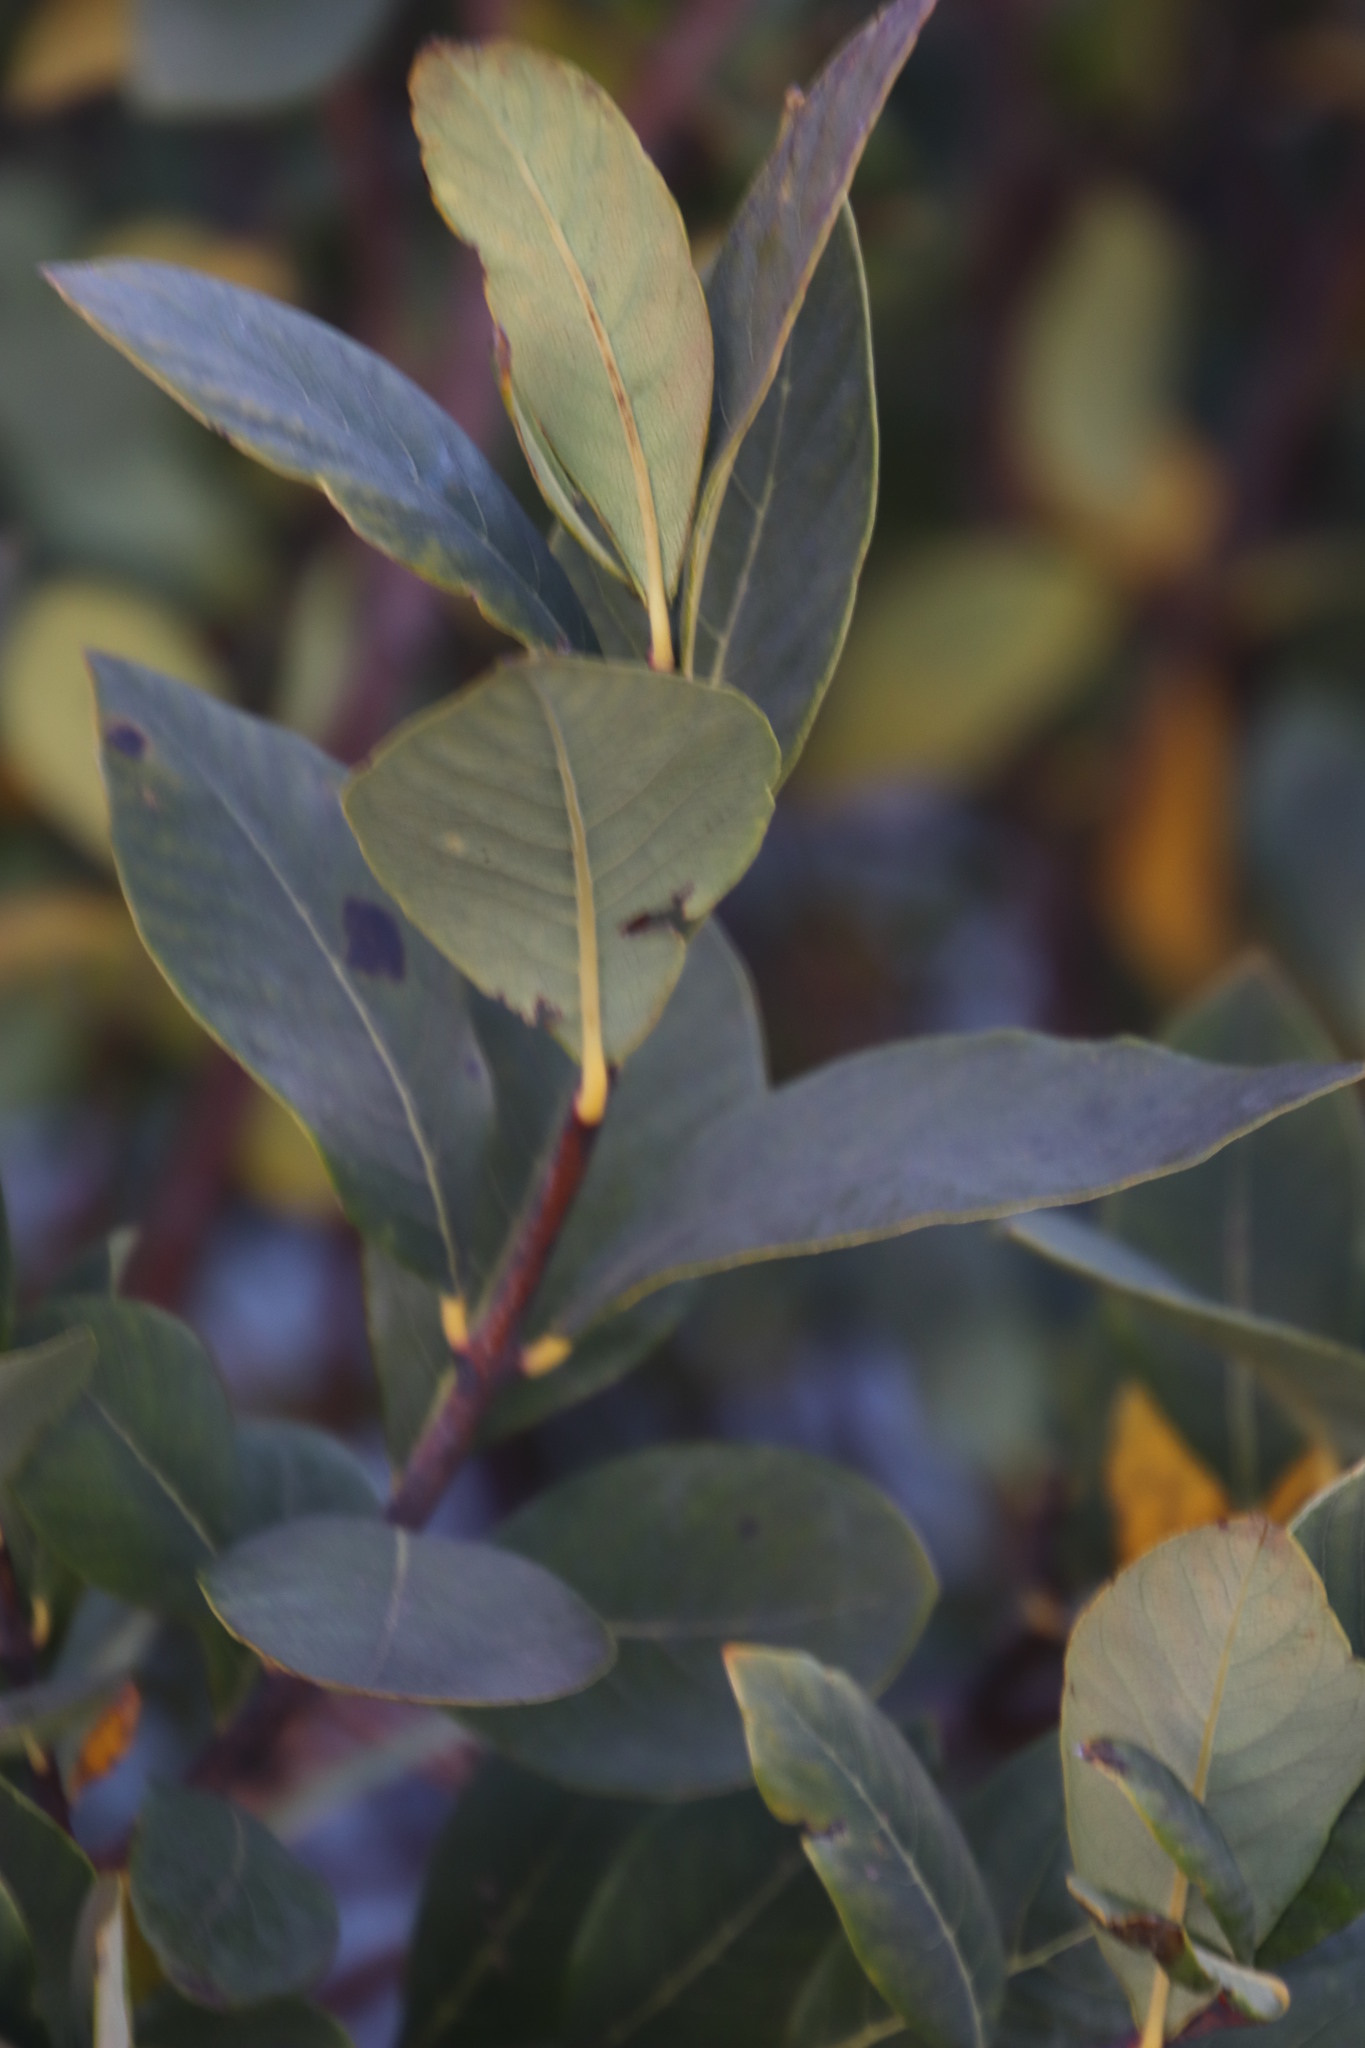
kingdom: Plantae
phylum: Tracheophyta
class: Magnoliopsida
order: Malvales
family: Thymelaeaceae
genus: Dais
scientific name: Dais cotinifolia
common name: Pompon tree
